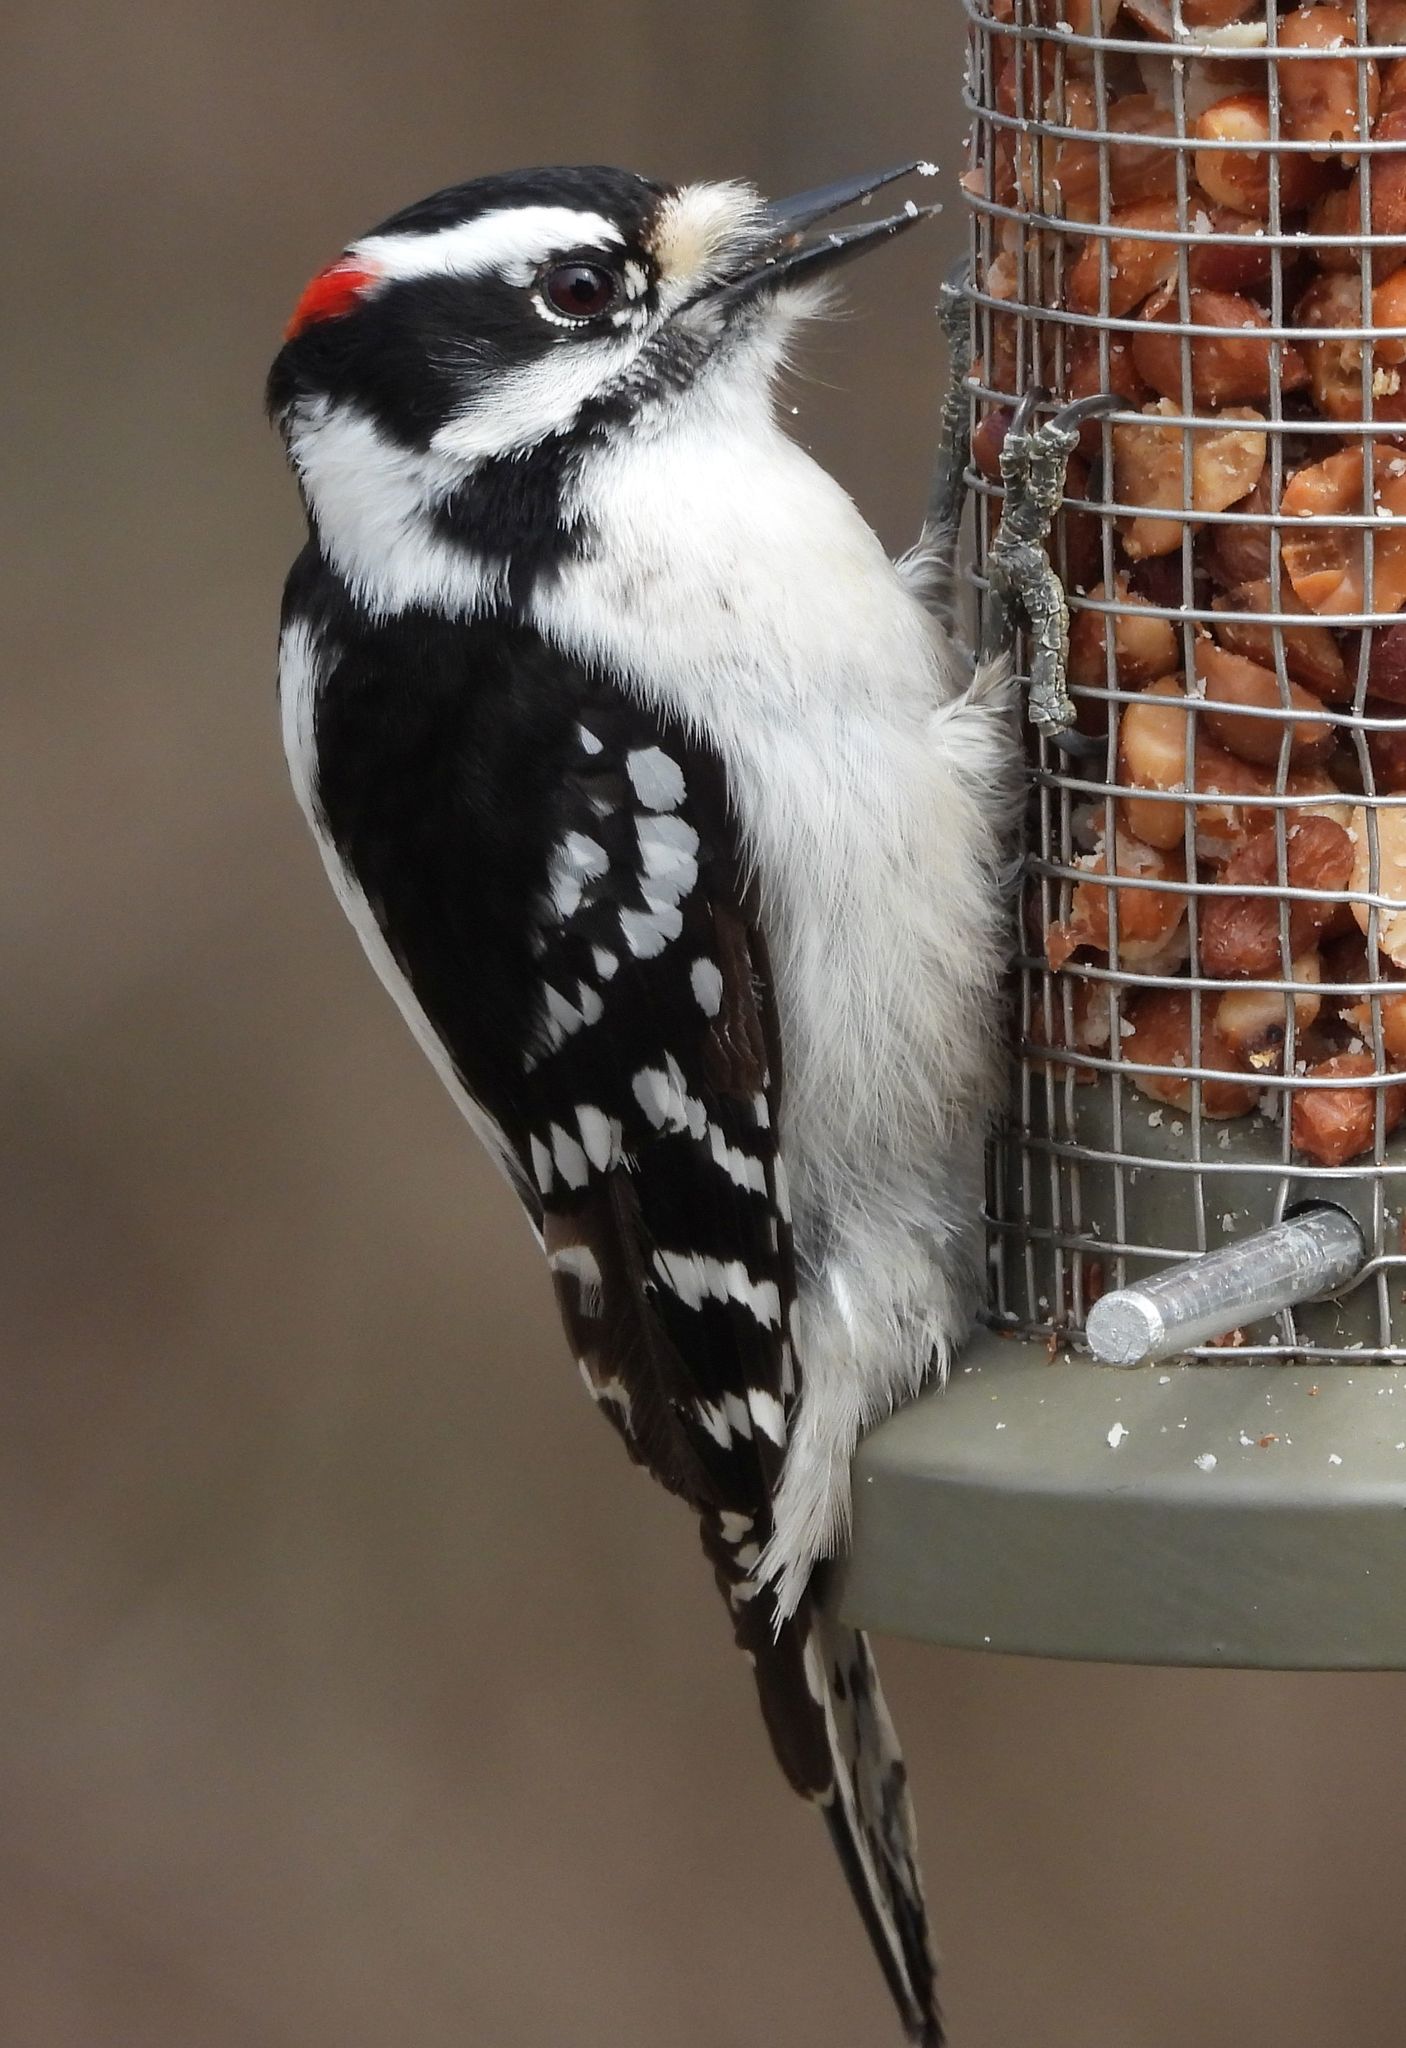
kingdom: Animalia
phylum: Chordata
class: Aves
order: Piciformes
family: Picidae
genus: Dryobates
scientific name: Dryobates pubescens
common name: Downy woodpecker
